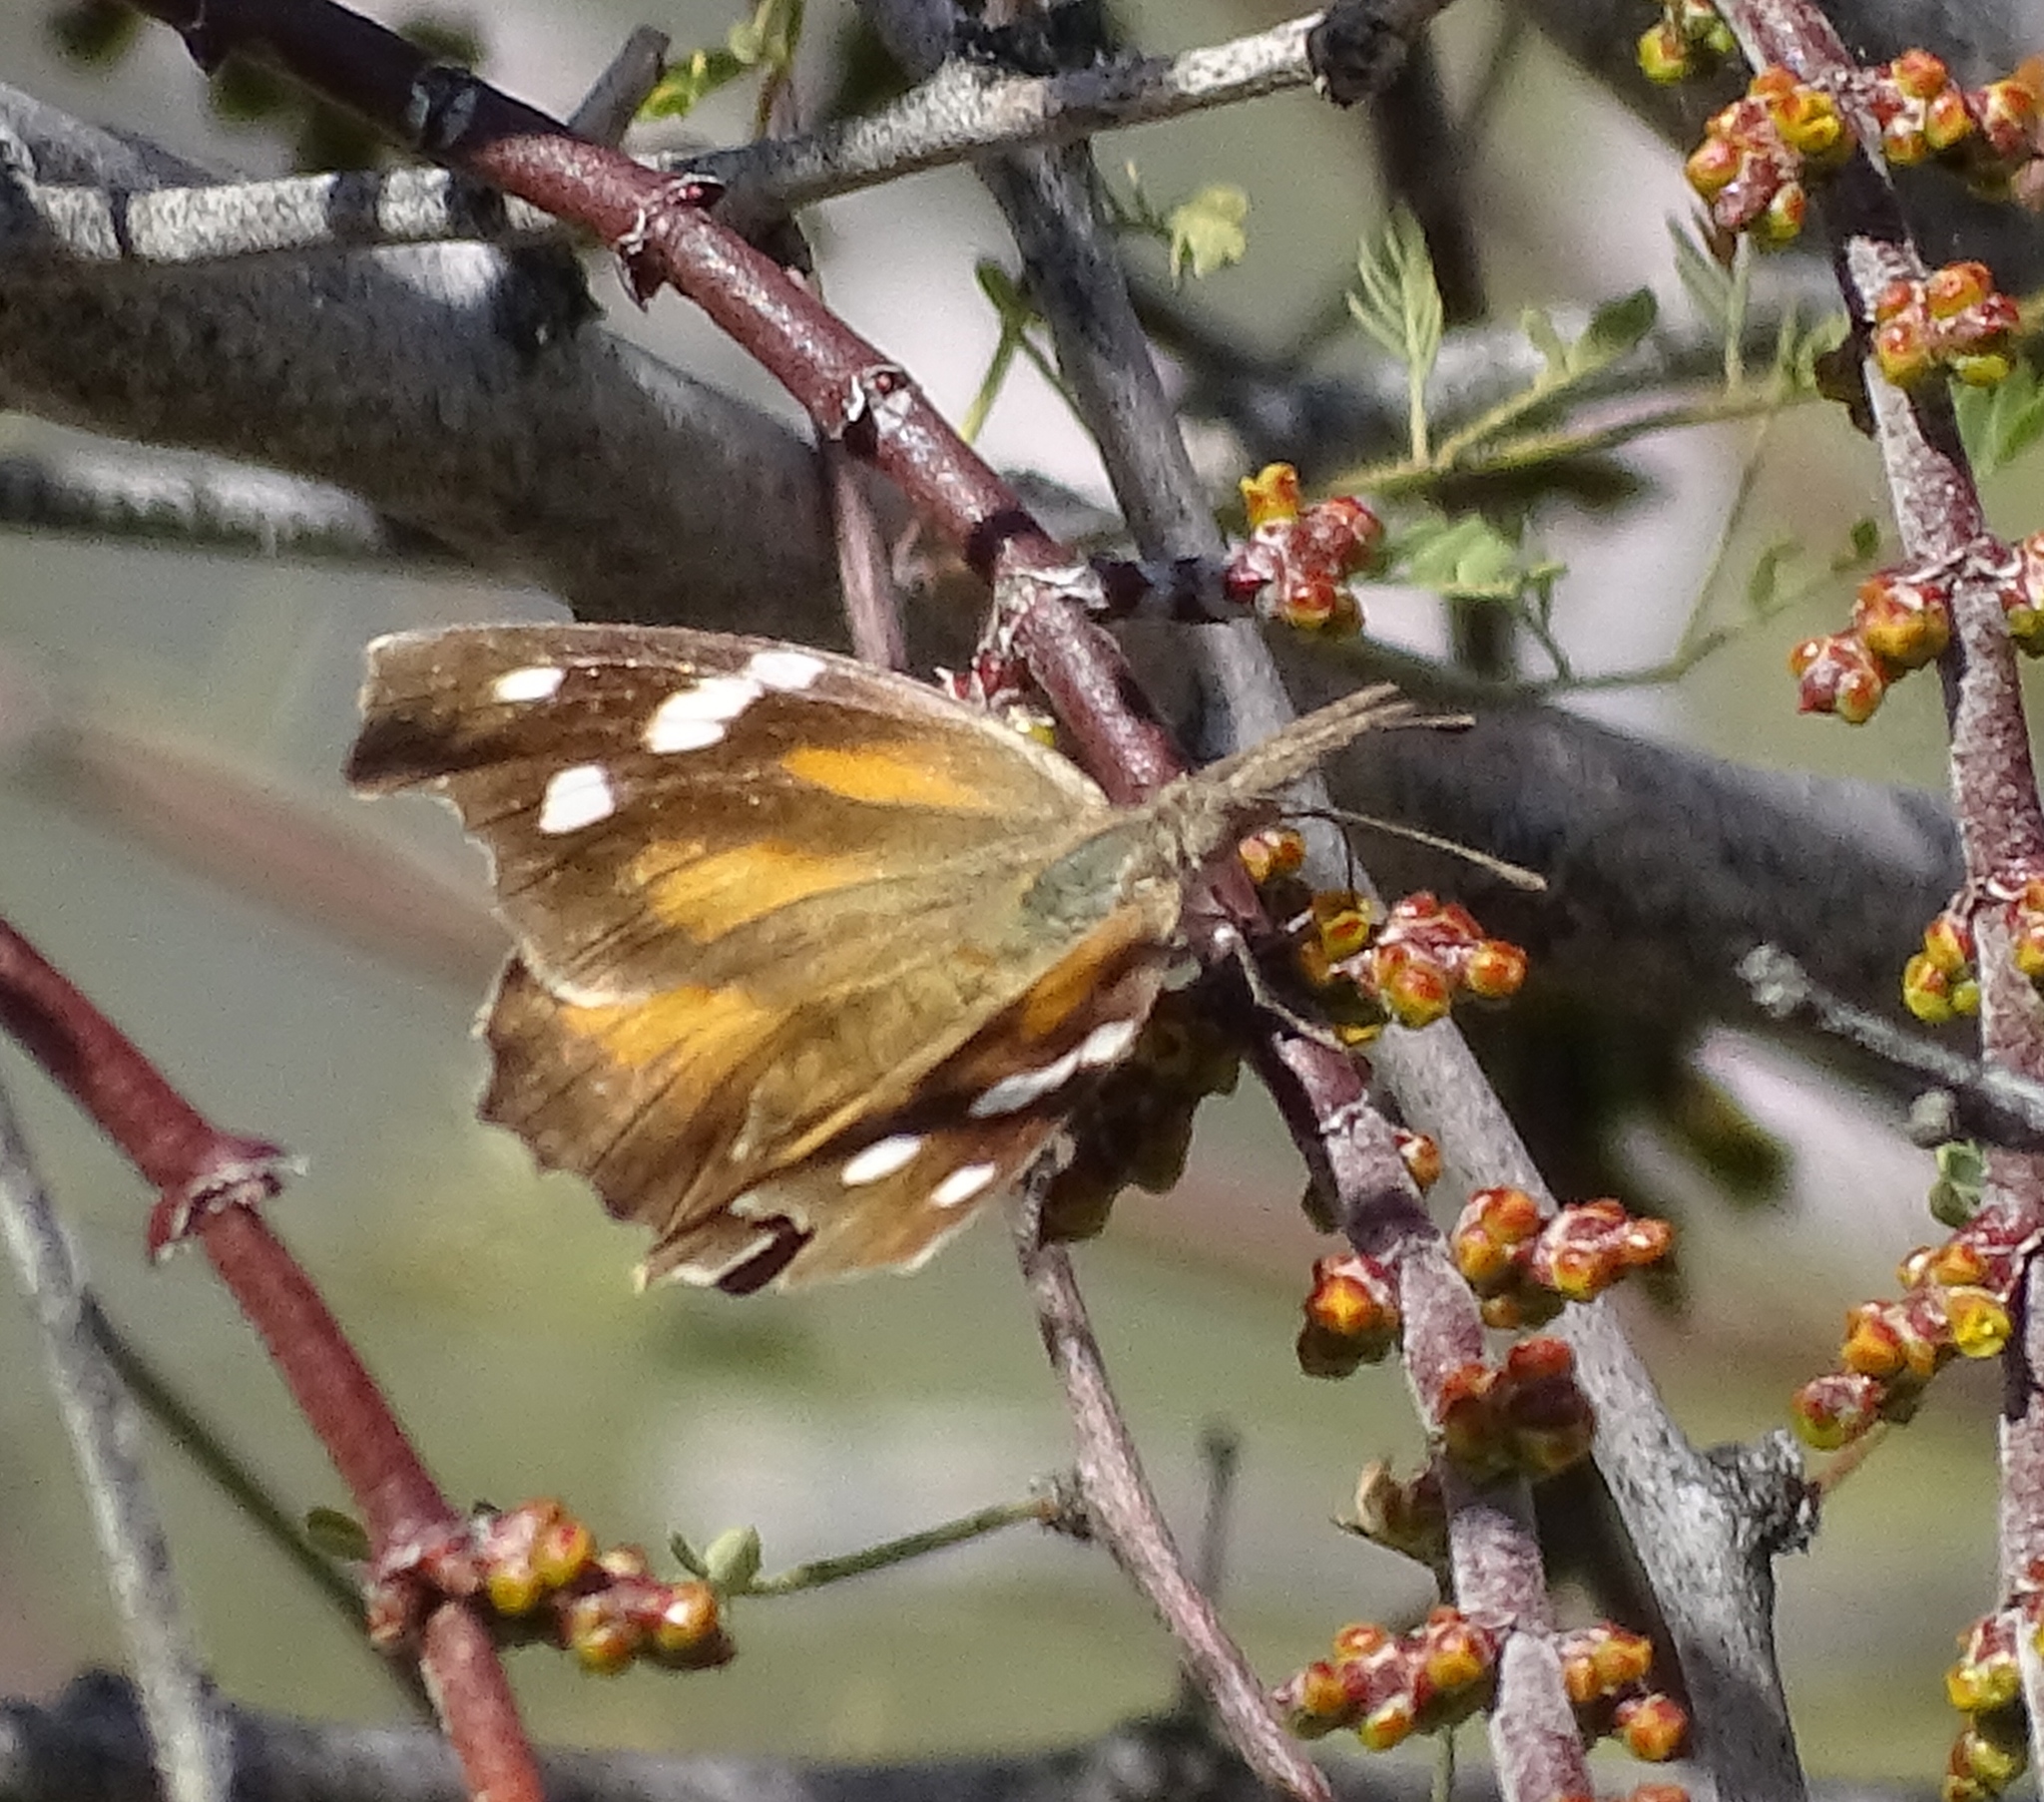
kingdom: Animalia
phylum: Arthropoda
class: Insecta
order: Lepidoptera
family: Nymphalidae
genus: Libytheana
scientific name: Libytheana carinenta
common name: American snout
